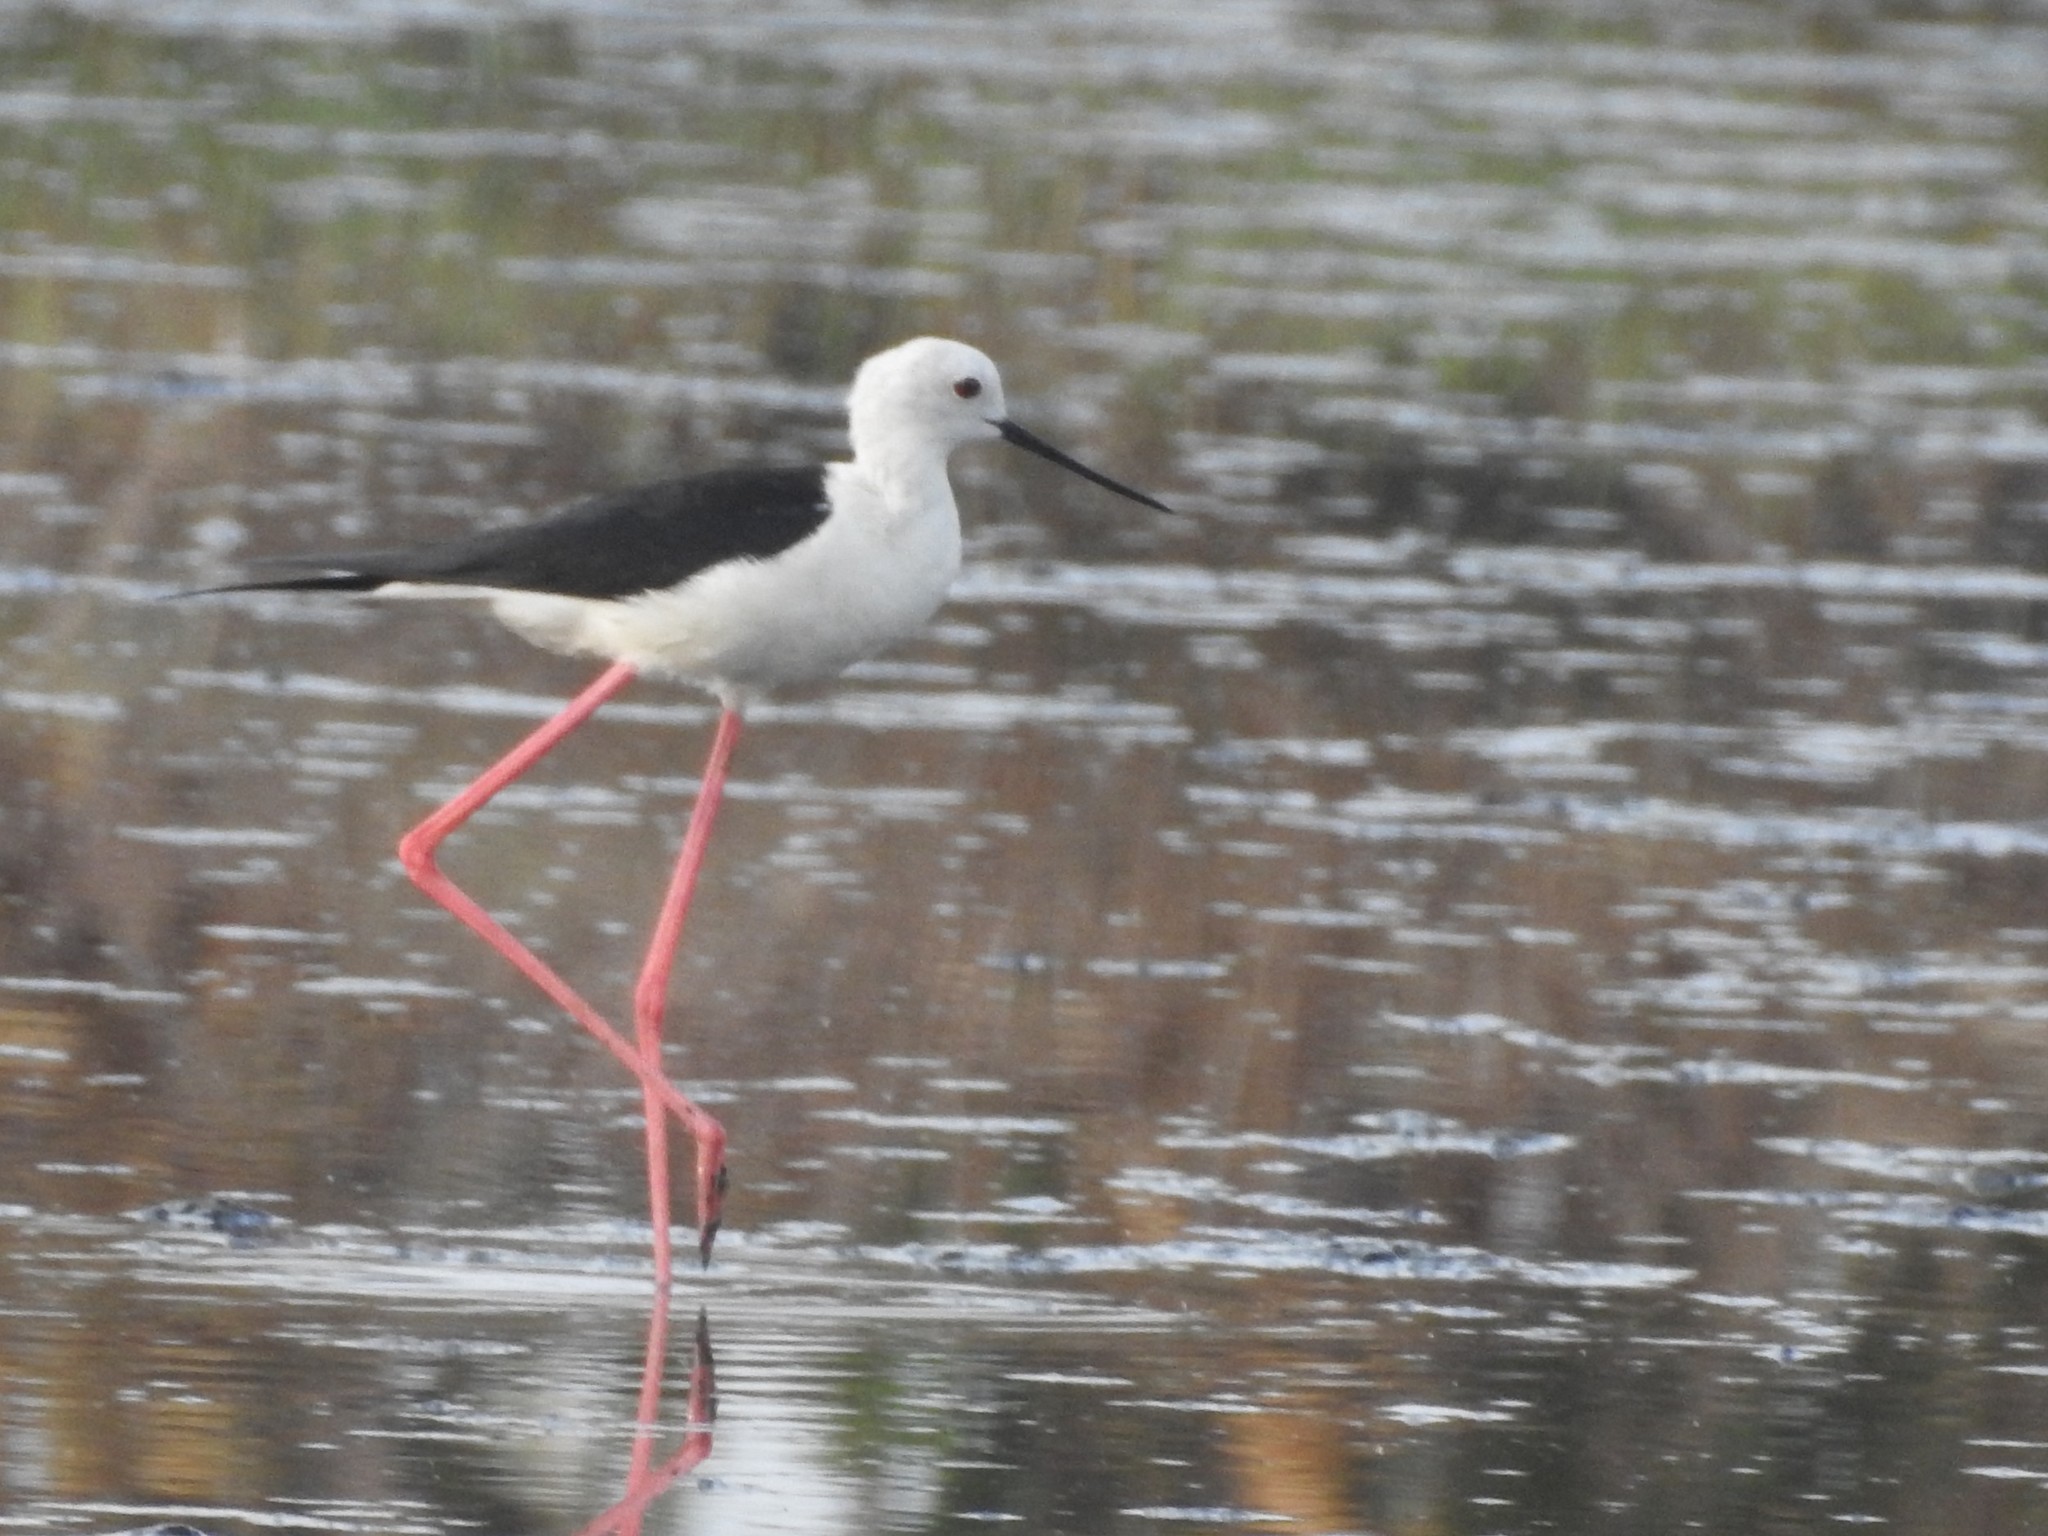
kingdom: Animalia
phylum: Chordata
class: Aves
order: Charadriiformes
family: Recurvirostridae
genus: Himantopus
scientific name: Himantopus himantopus
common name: Black-winged stilt
